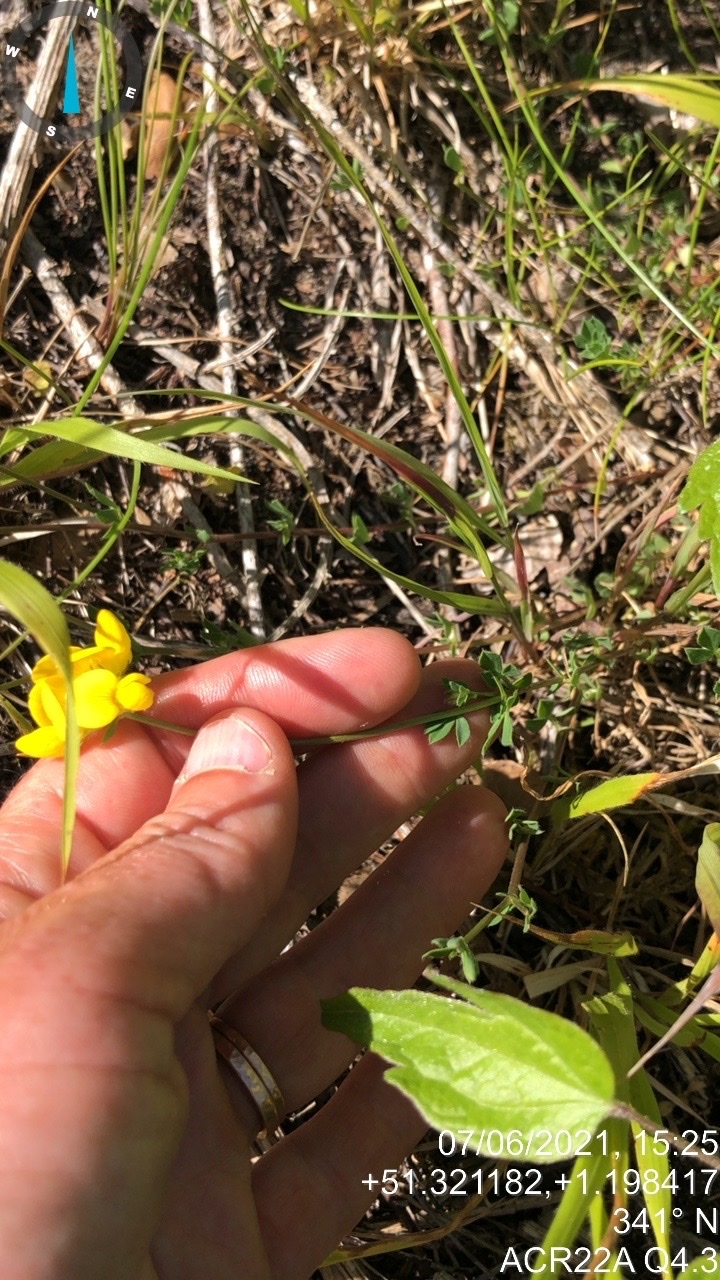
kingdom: Plantae
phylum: Tracheophyta
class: Magnoliopsida
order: Fabales
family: Fabaceae
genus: Lotus
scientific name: Lotus corniculatus
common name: Common bird's-foot-trefoil
